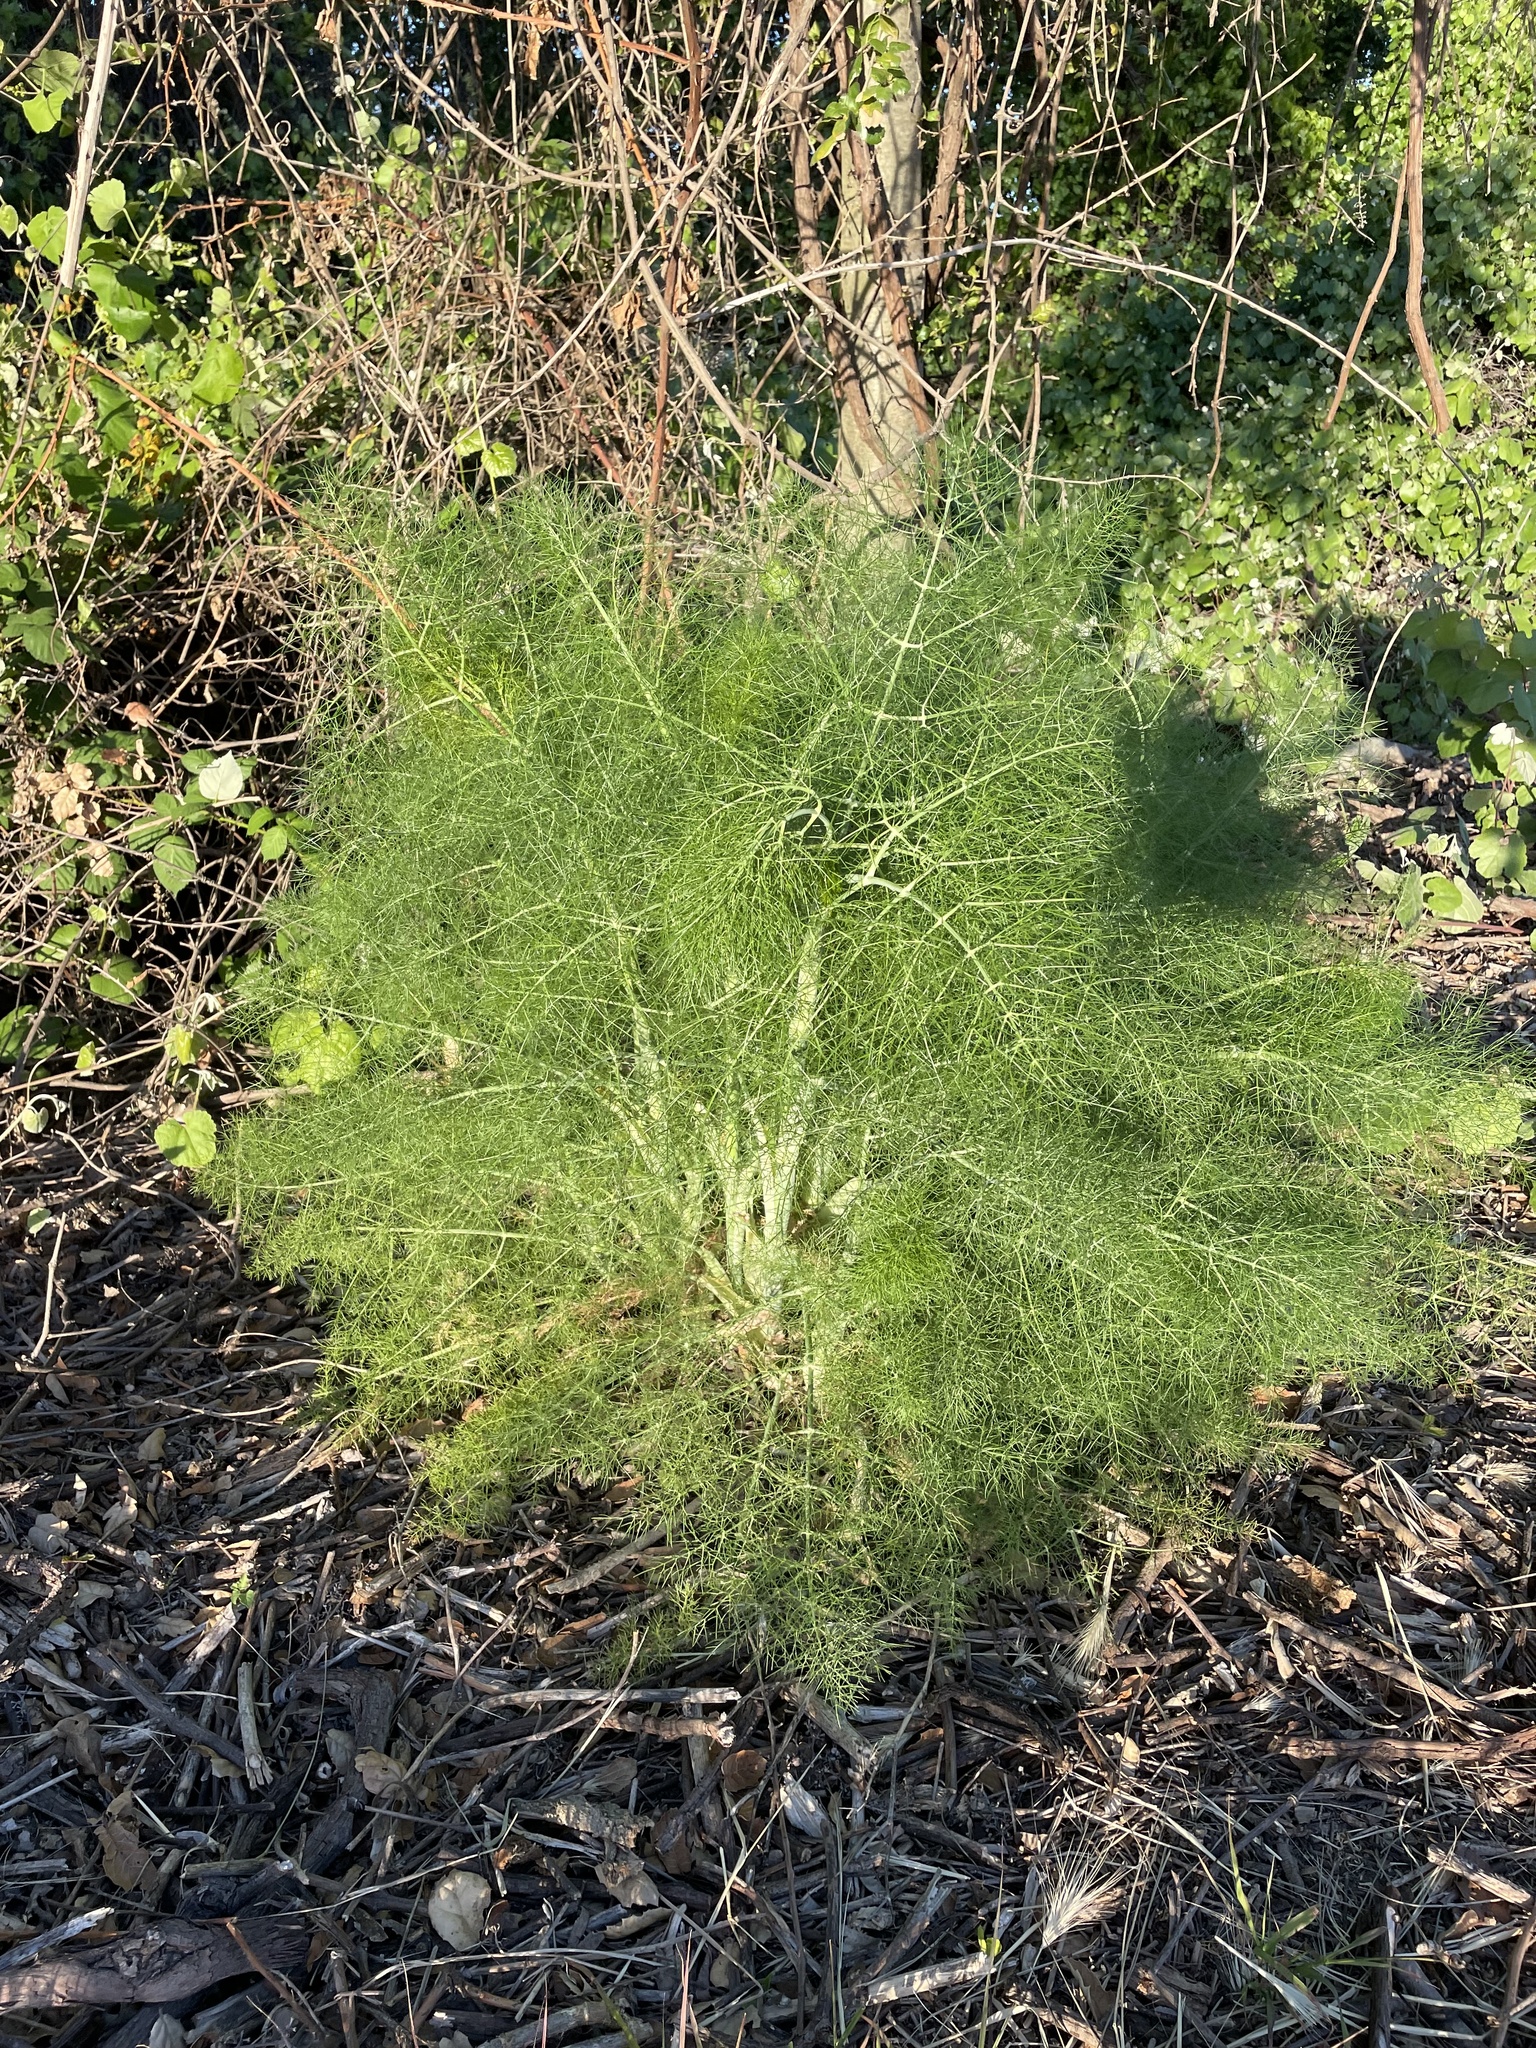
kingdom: Plantae
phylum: Tracheophyta
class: Magnoliopsida
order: Apiales
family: Apiaceae
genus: Foeniculum
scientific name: Foeniculum vulgare
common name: Fennel
